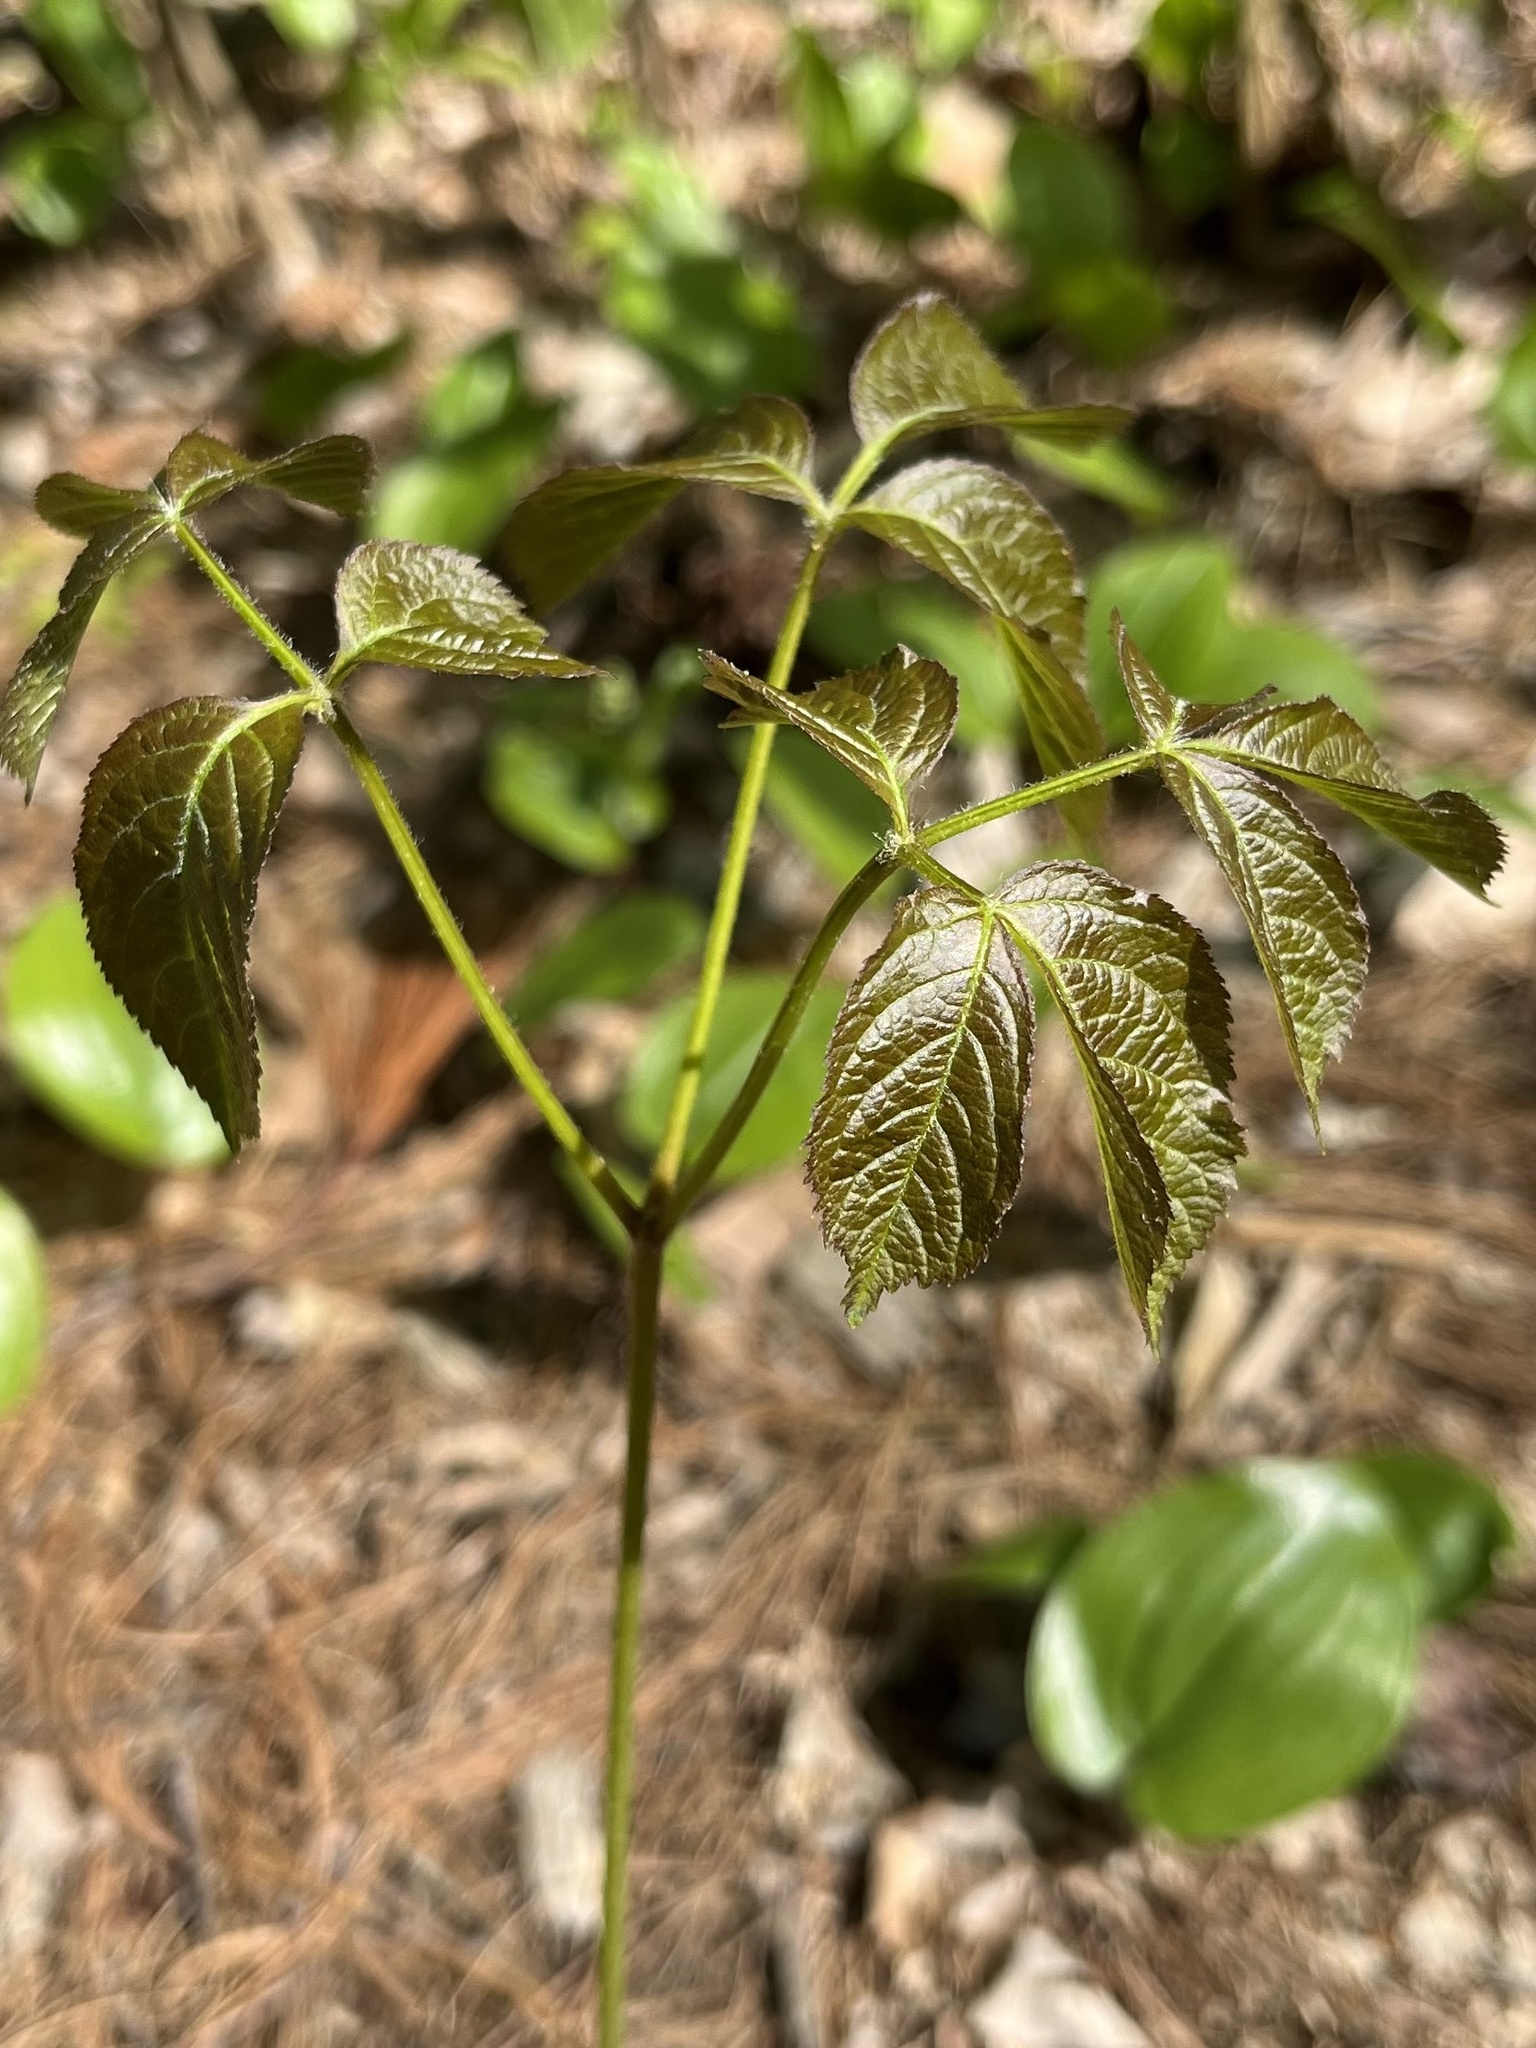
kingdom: Plantae
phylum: Tracheophyta
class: Magnoliopsida
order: Apiales
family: Araliaceae
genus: Aralia
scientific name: Aralia nudicaulis
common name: Wild sarsaparilla
